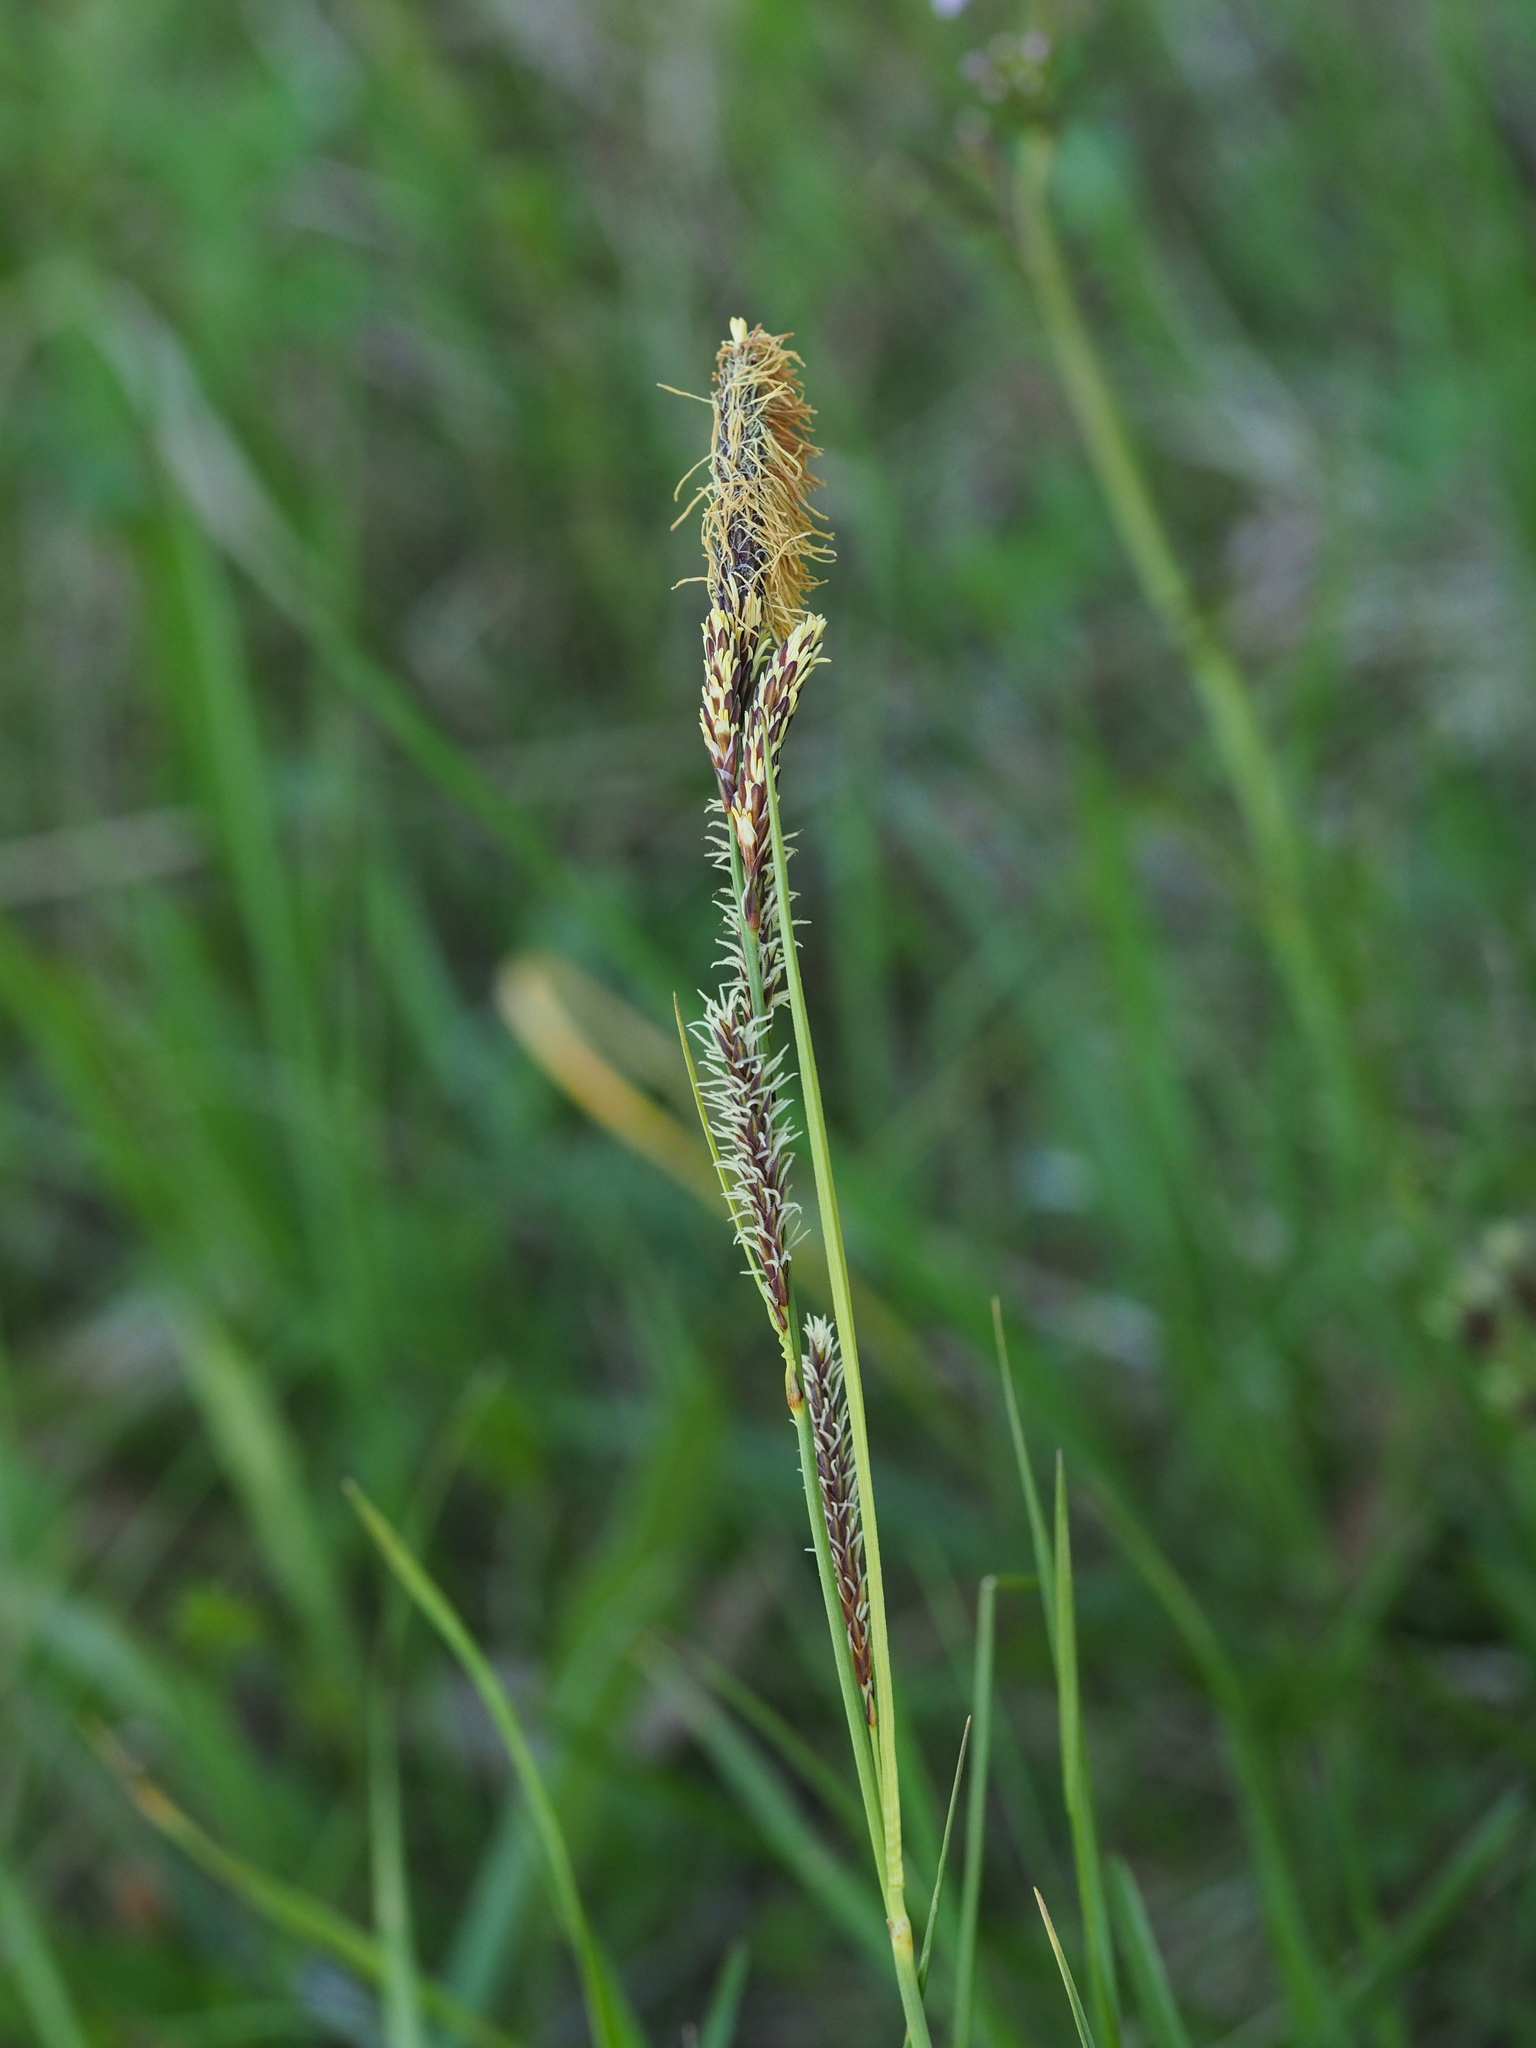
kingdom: Plantae
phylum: Tracheophyta
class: Liliopsida
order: Poales
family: Cyperaceae
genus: Carex
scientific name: Carex flacca
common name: Glaucous sedge
